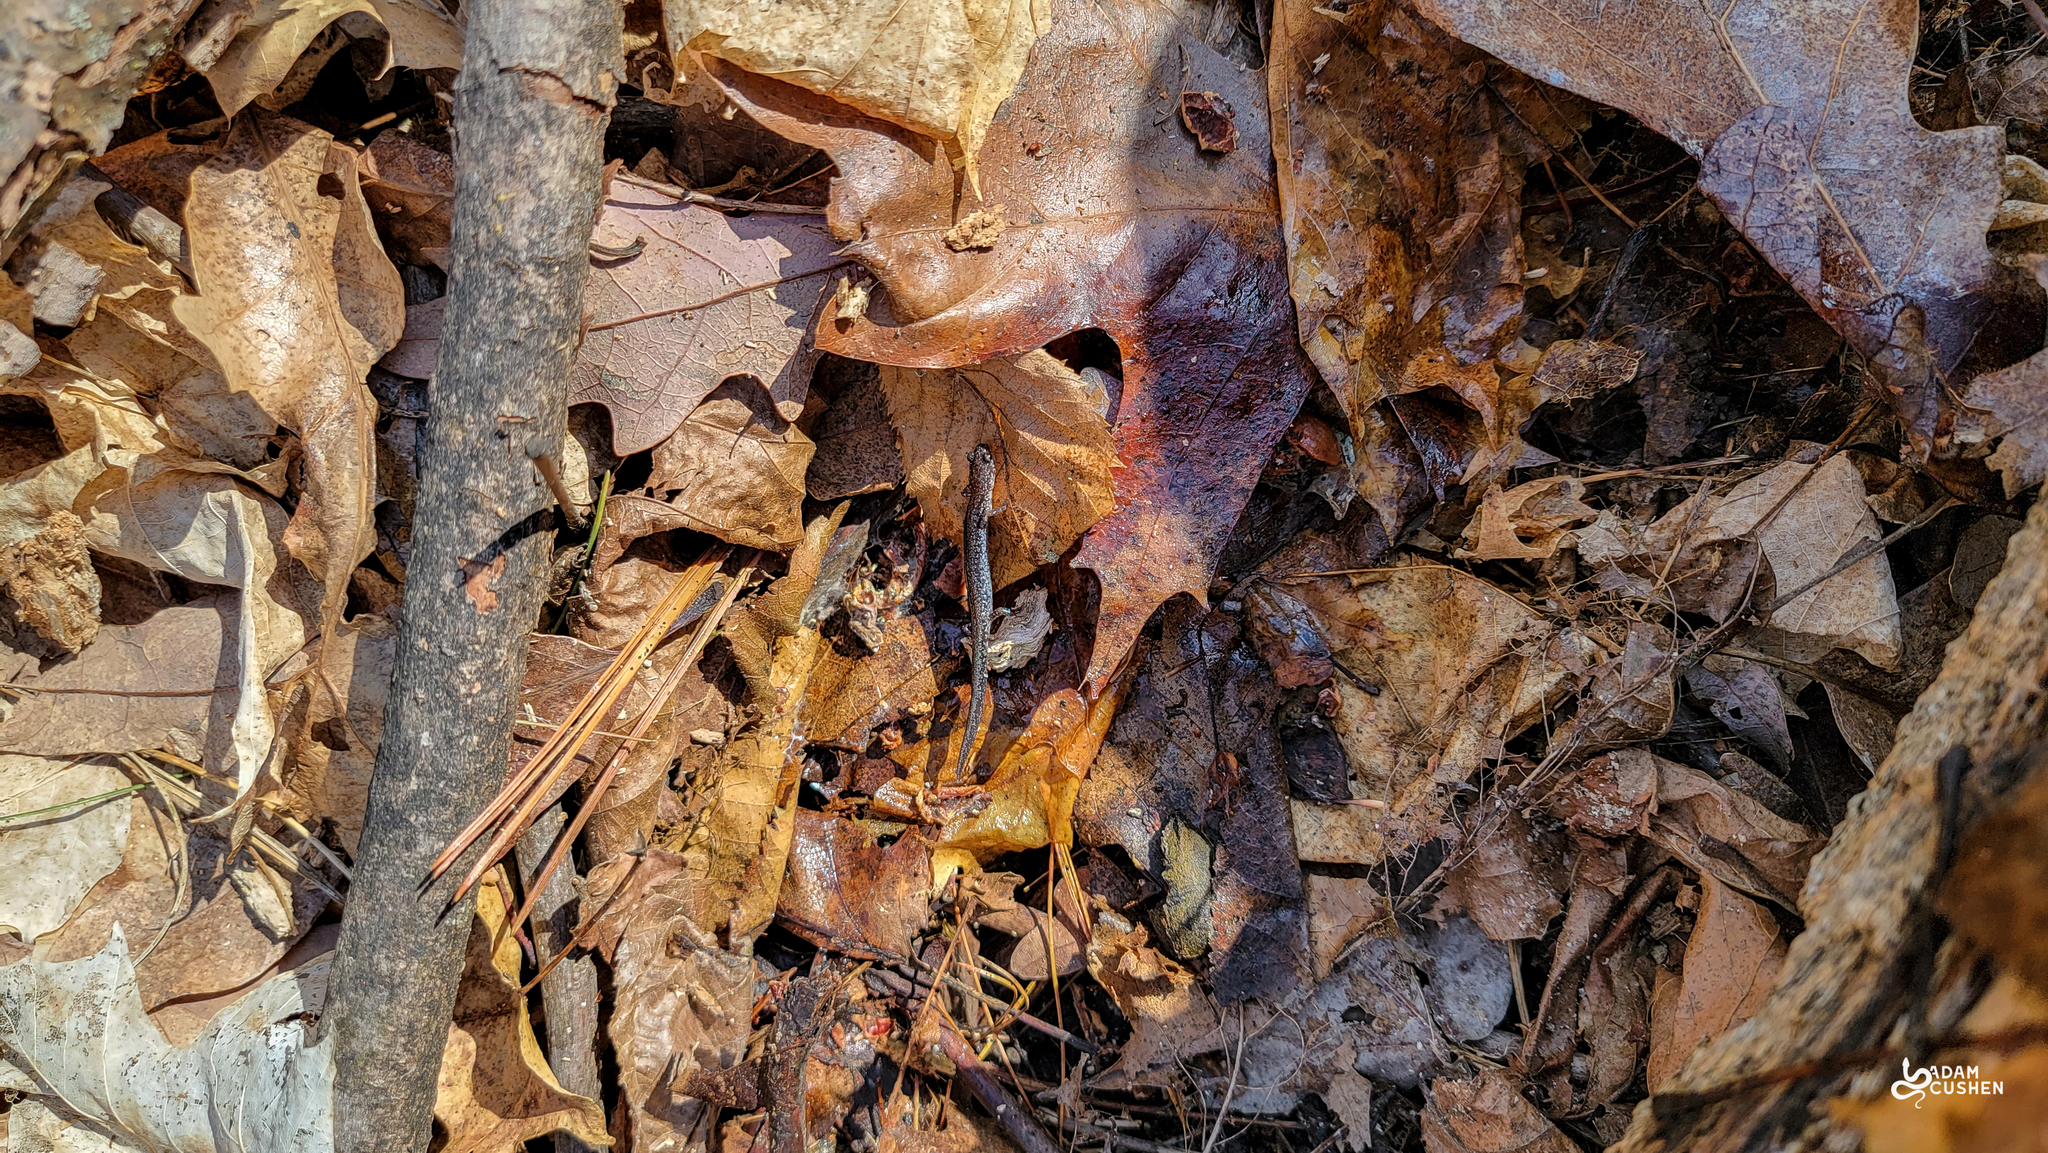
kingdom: Animalia
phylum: Chordata
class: Amphibia
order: Caudata
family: Plethodontidae
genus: Plethodon
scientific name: Plethodon cinereus
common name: Redback salamander
